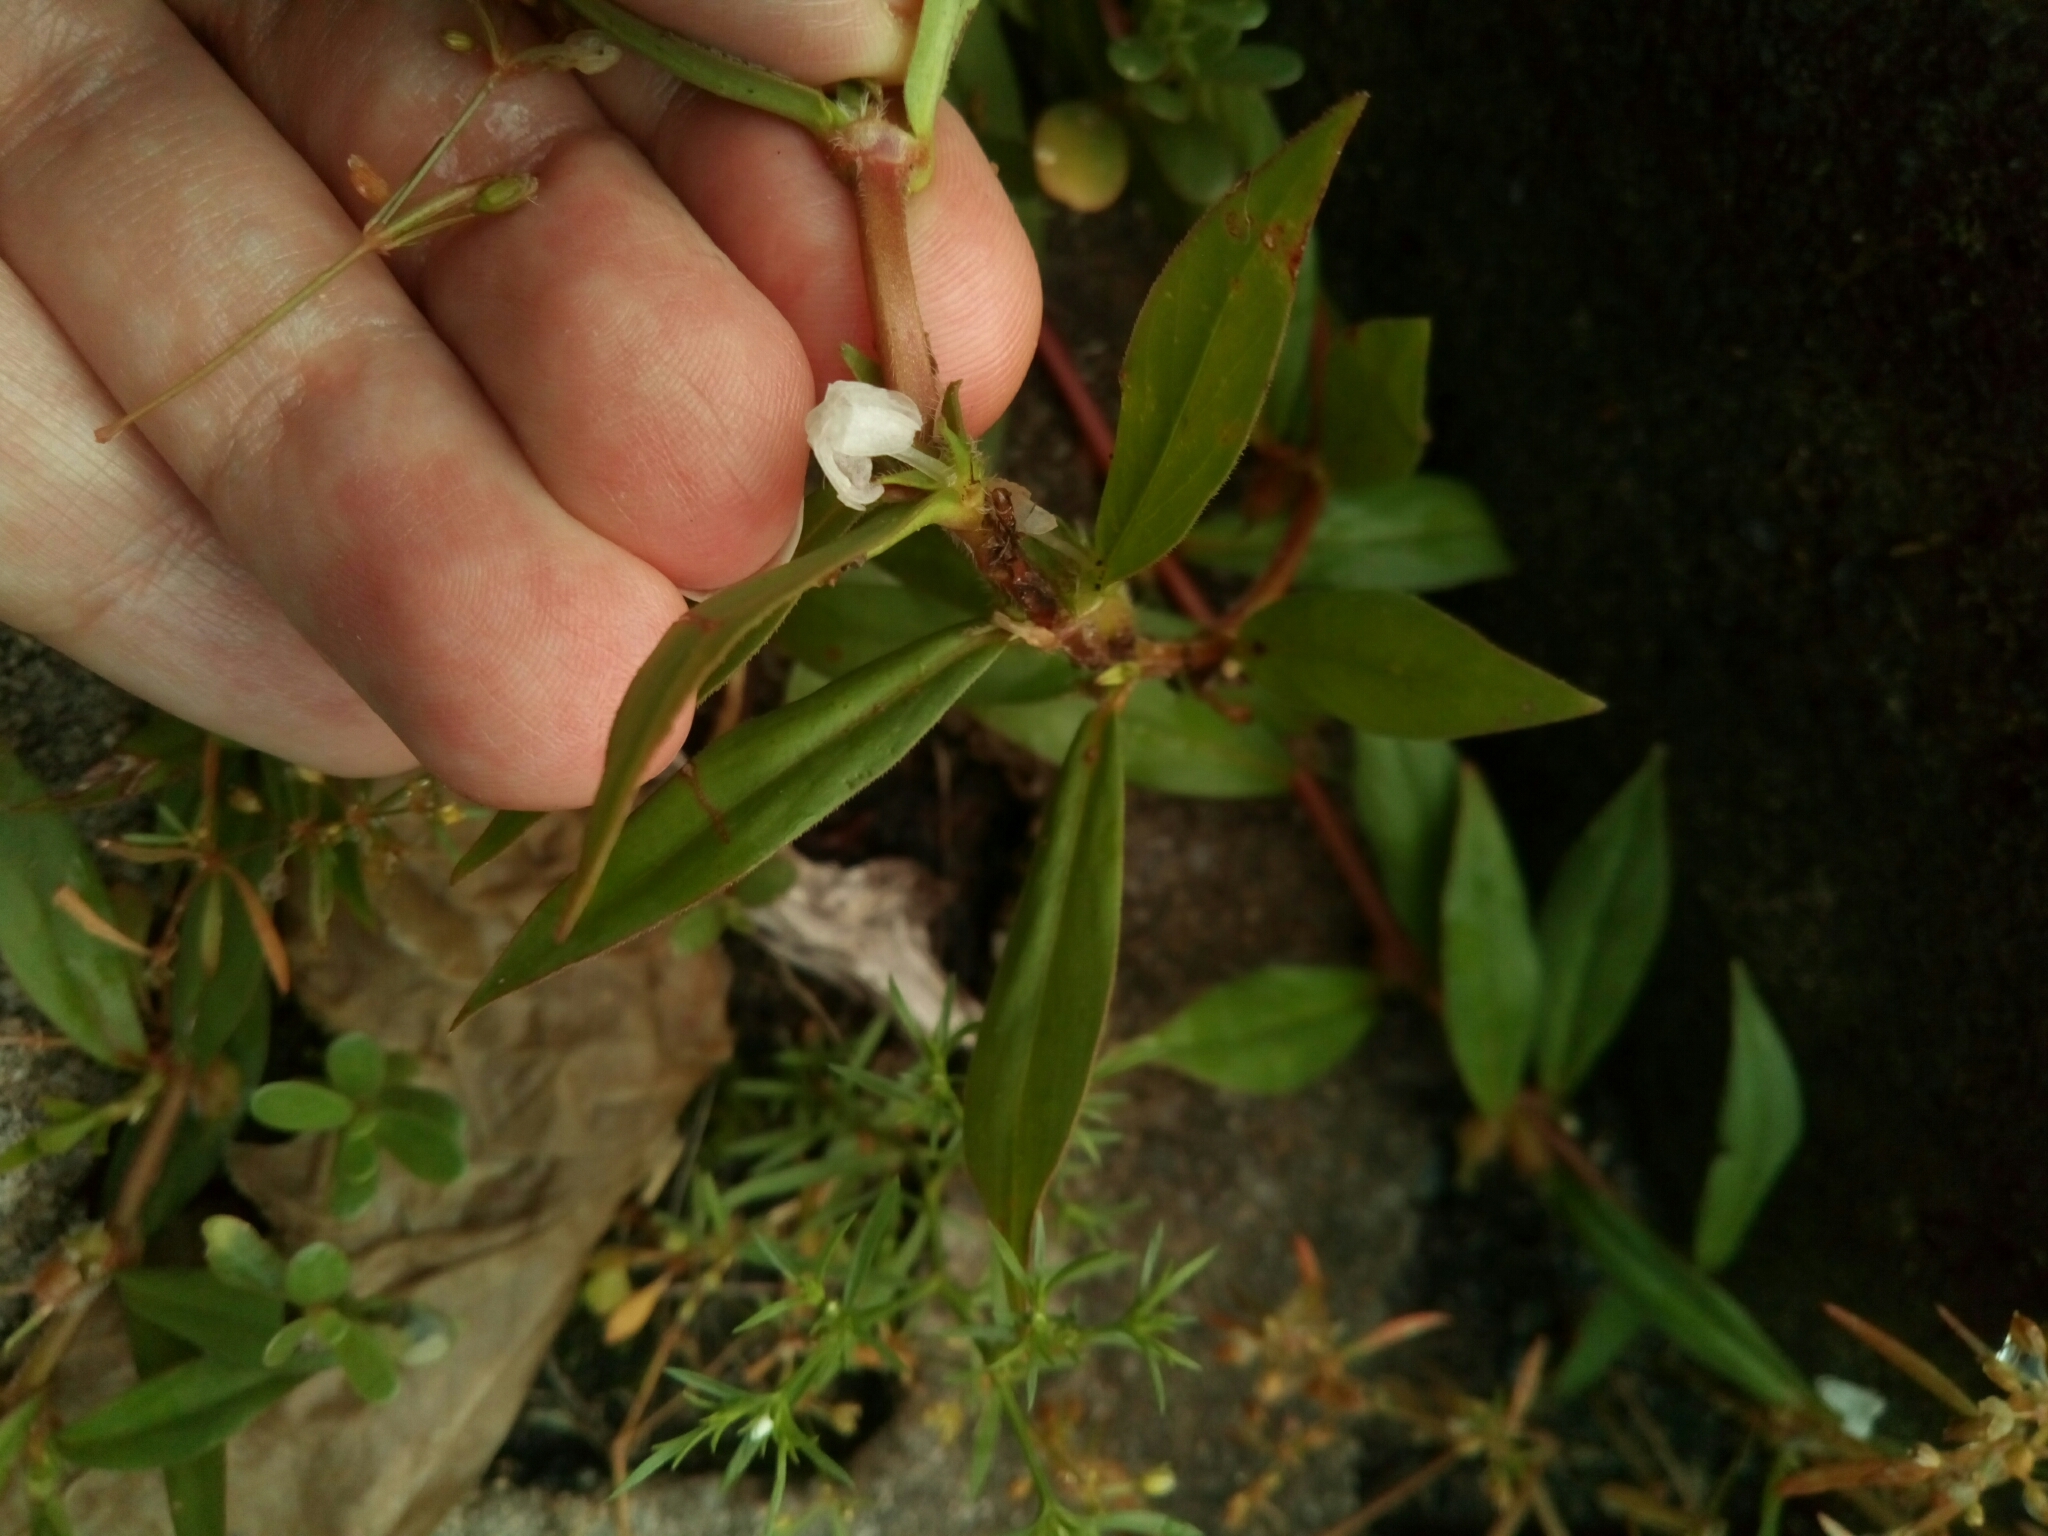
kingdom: Plantae
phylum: Tracheophyta
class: Magnoliopsida
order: Gentianales
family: Rubiaceae
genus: Diodia
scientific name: Diodia virginiana
